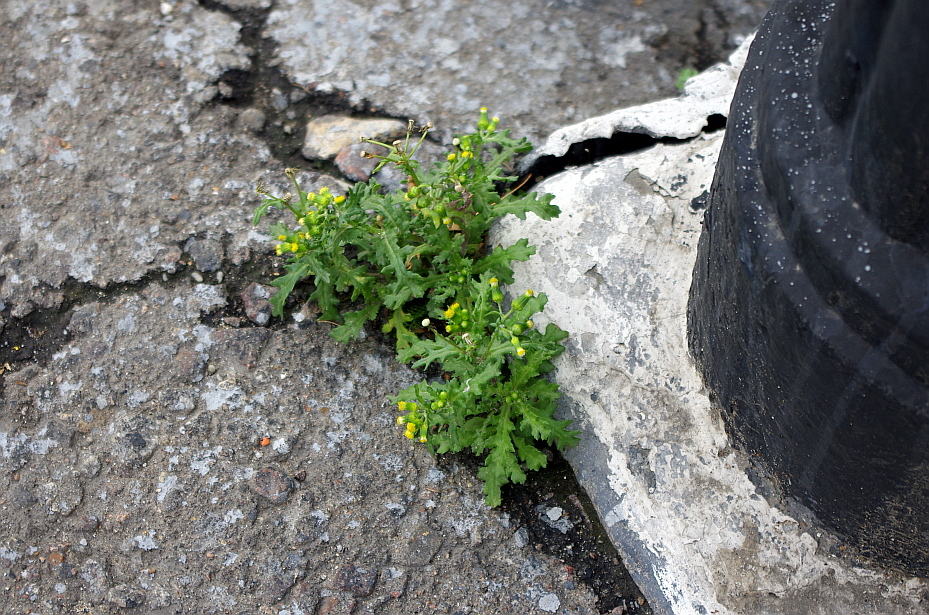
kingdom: Plantae
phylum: Tracheophyta
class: Magnoliopsida
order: Asterales
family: Asteraceae
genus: Senecio
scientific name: Senecio vulgaris
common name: Old-man-in-the-spring
